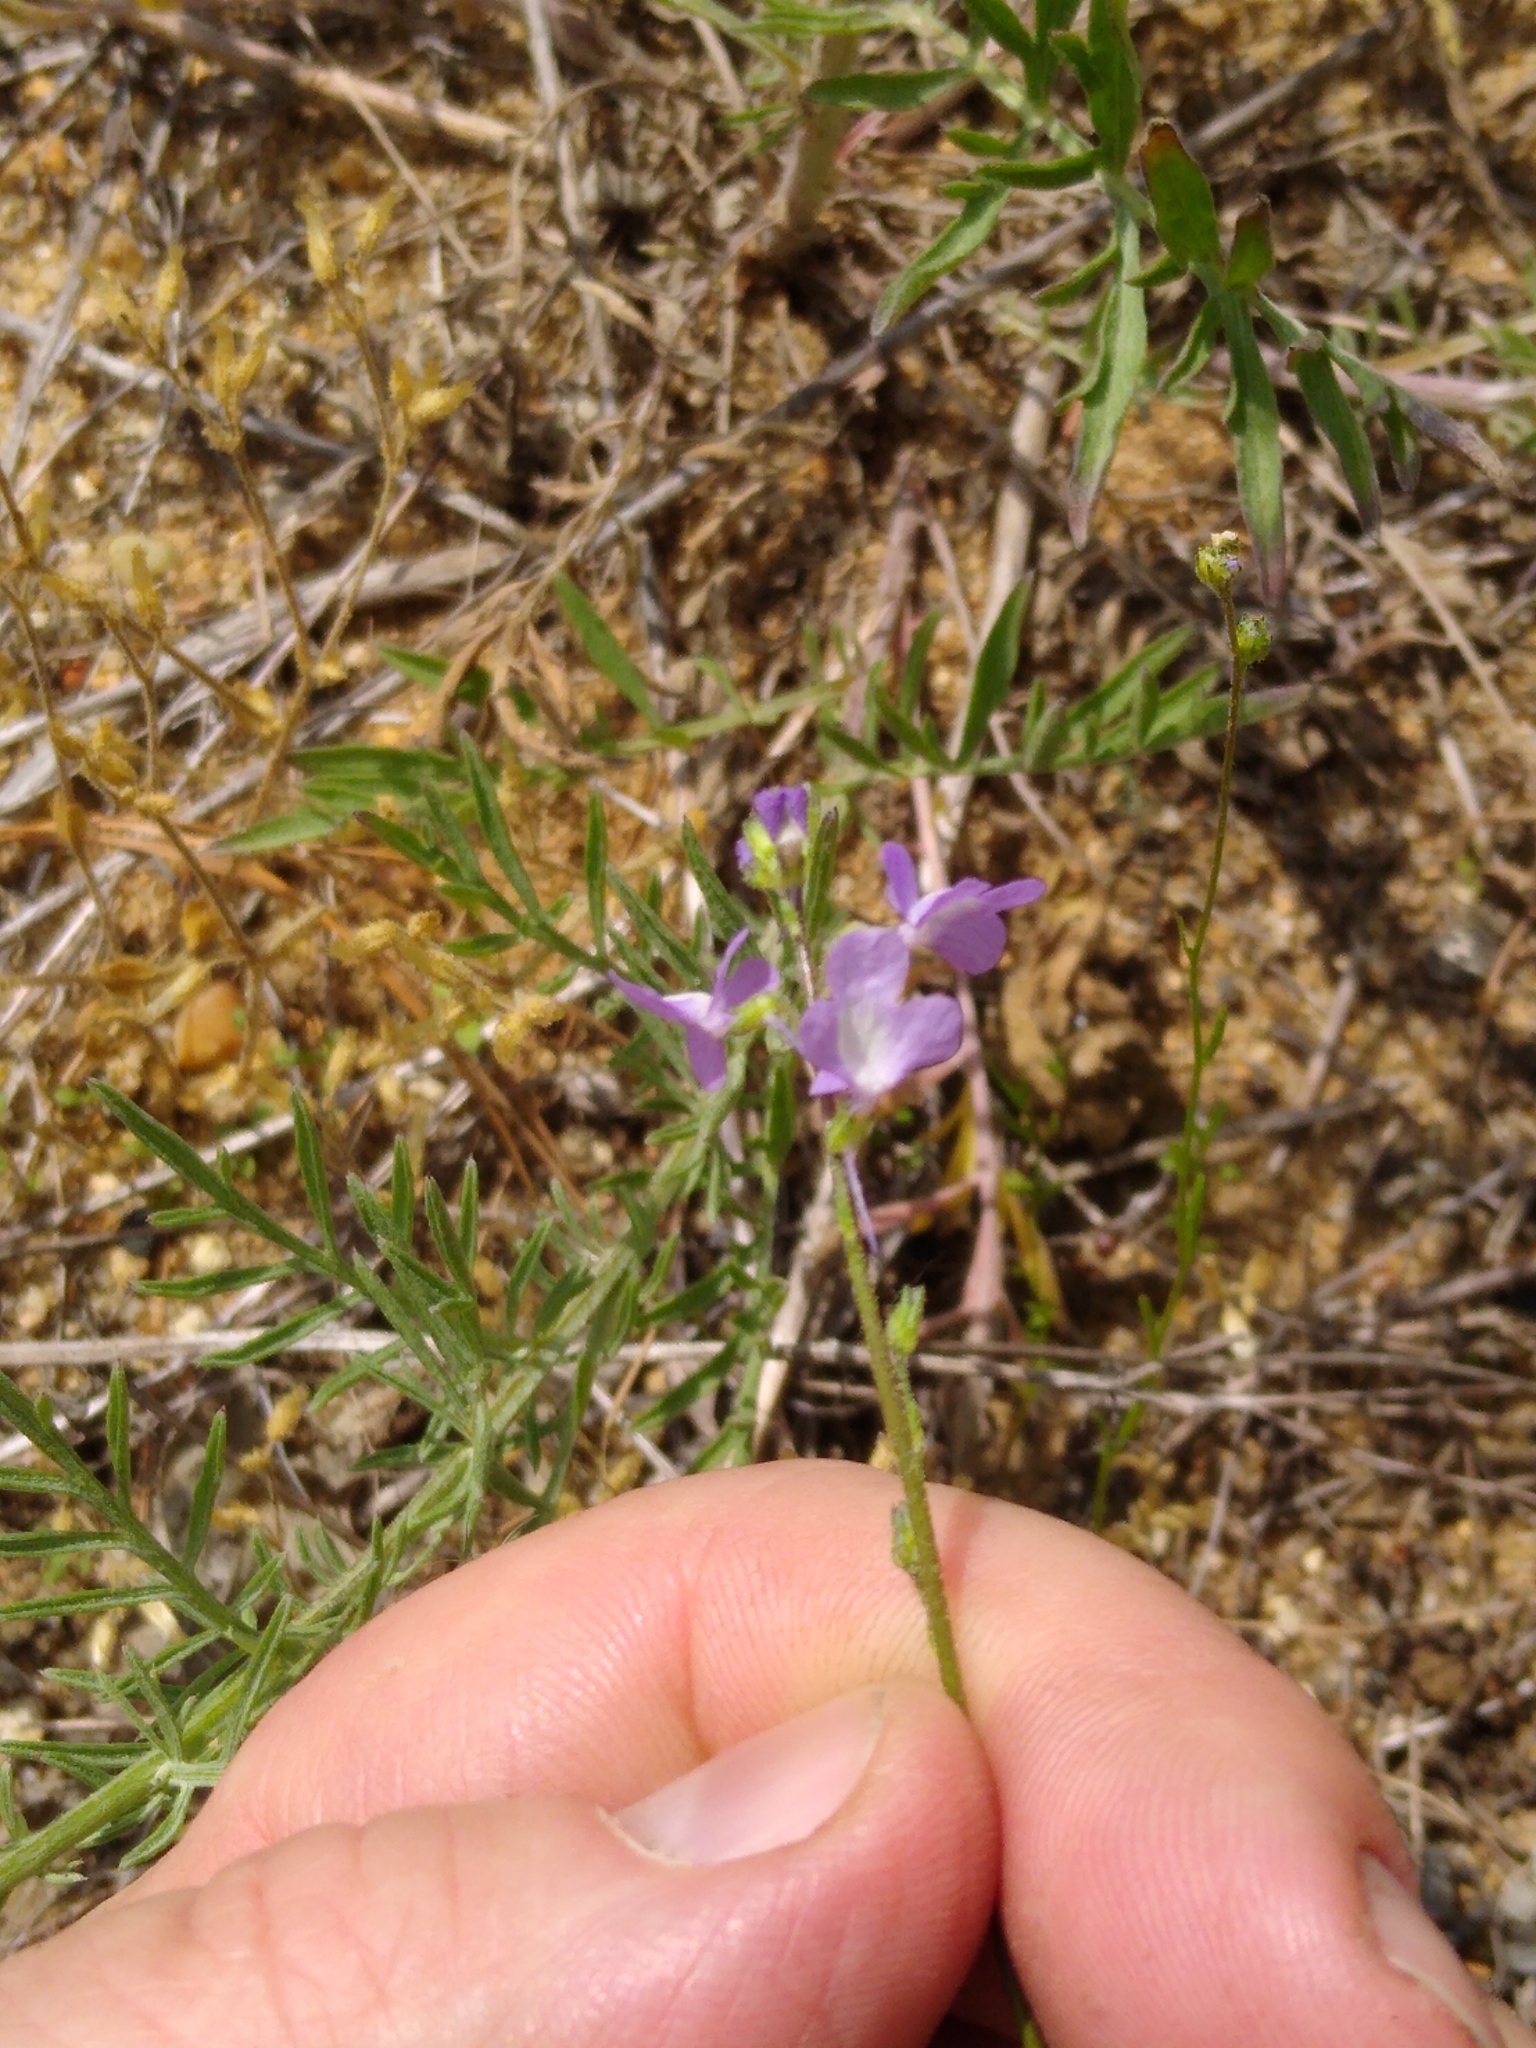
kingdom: Plantae
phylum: Tracheophyta
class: Magnoliopsida
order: Lamiales
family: Plantaginaceae
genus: Nuttallanthus
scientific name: Nuttallanthus canadensis
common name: Blue toadflax
